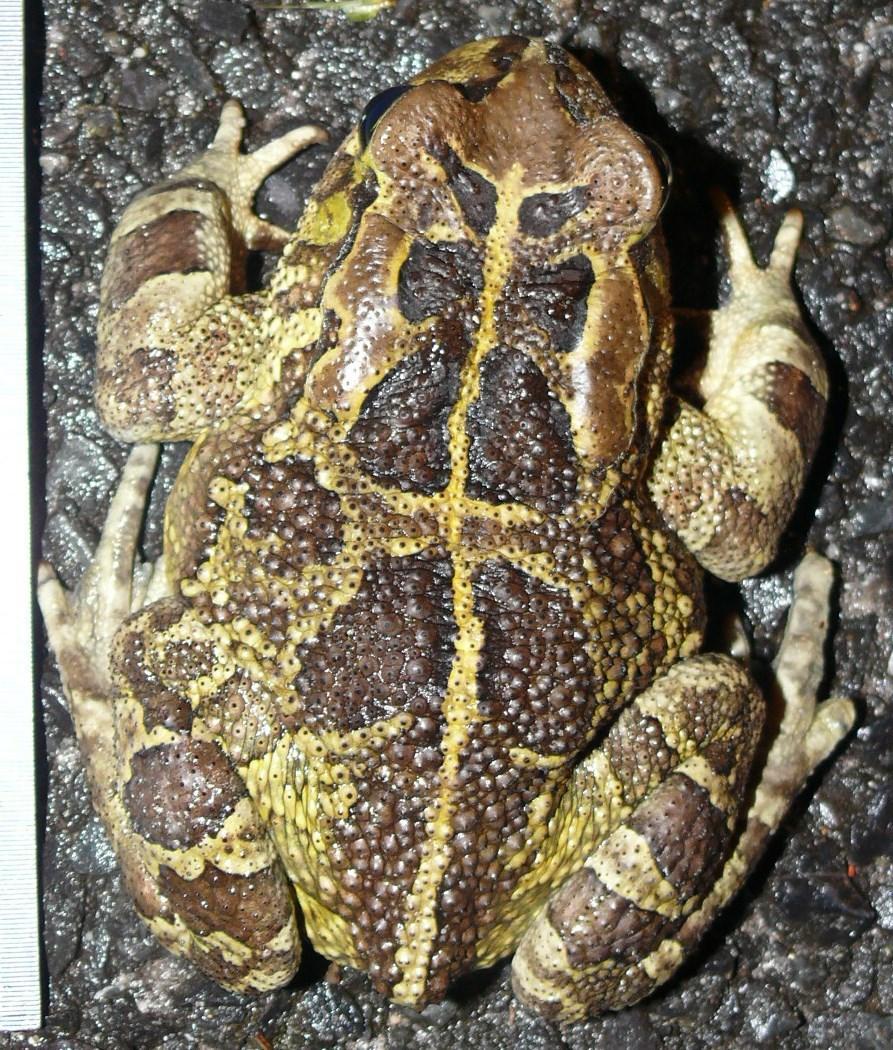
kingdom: Animalia
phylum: Chordata
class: Amphibia
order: Anura
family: Bufonidae
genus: Sclerophrys
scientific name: Sclerophrys pantherina
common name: Panther toad
